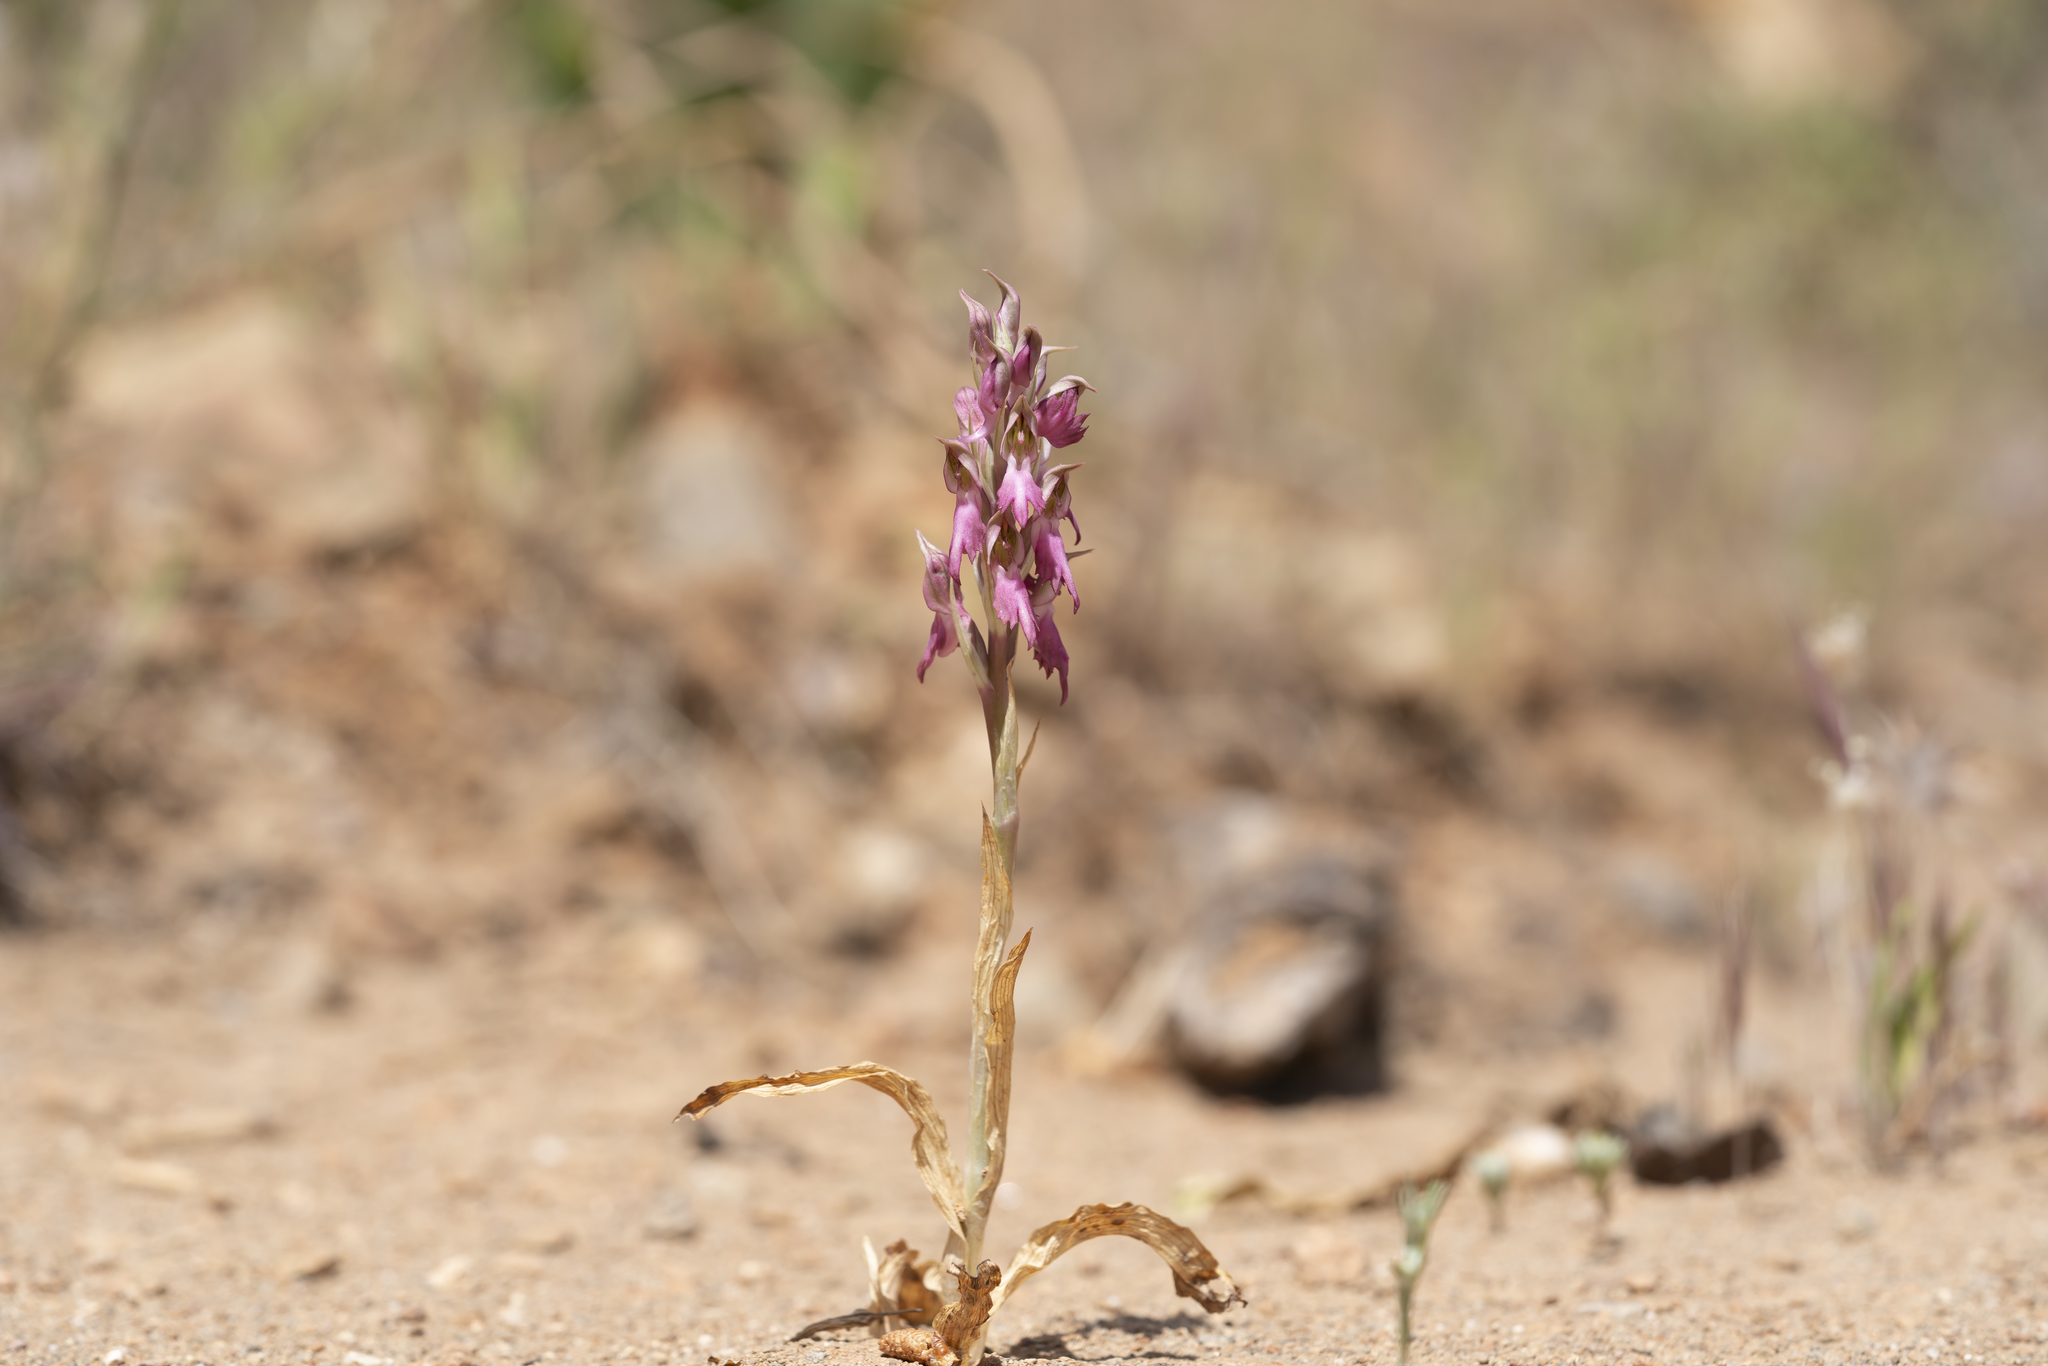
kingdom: Plantae
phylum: Tracheophyta
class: Liliopsida
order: Asparagales
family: Orchidaceae
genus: Anacamptis
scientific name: Anacamptis sancta
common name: Holy orchid
